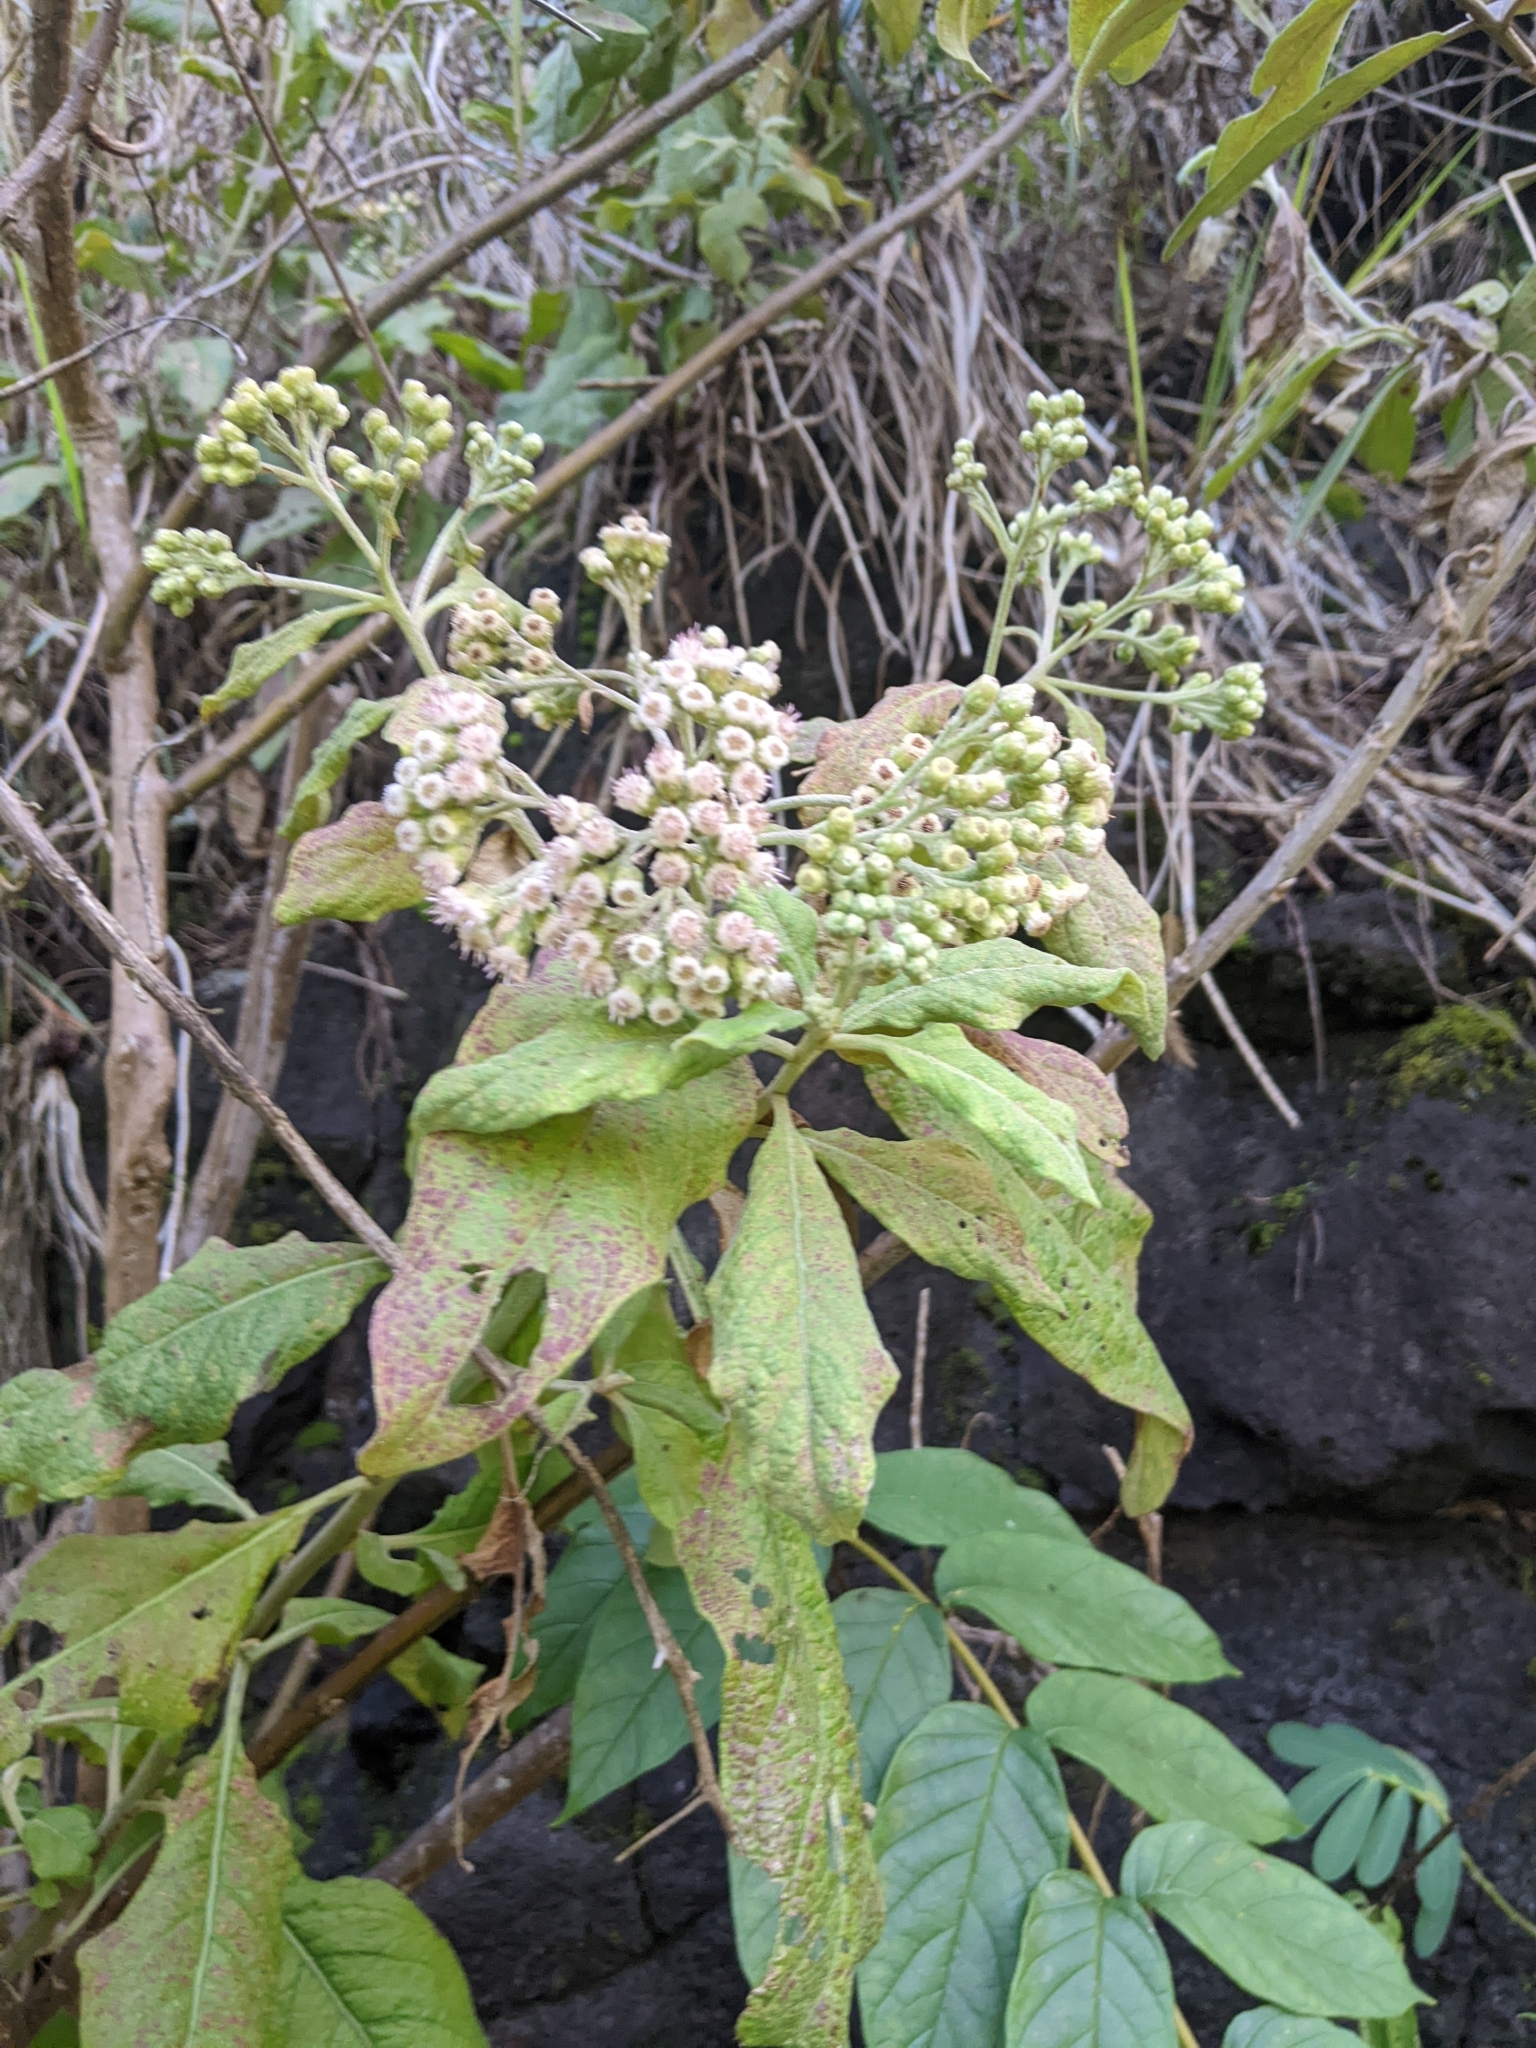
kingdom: Plantae
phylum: Tracheophyta
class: Magnoliopsida
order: Asterales
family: Asteraceae
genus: Pluchea
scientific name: Pluchea carolinensis
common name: Marsh fleabane
